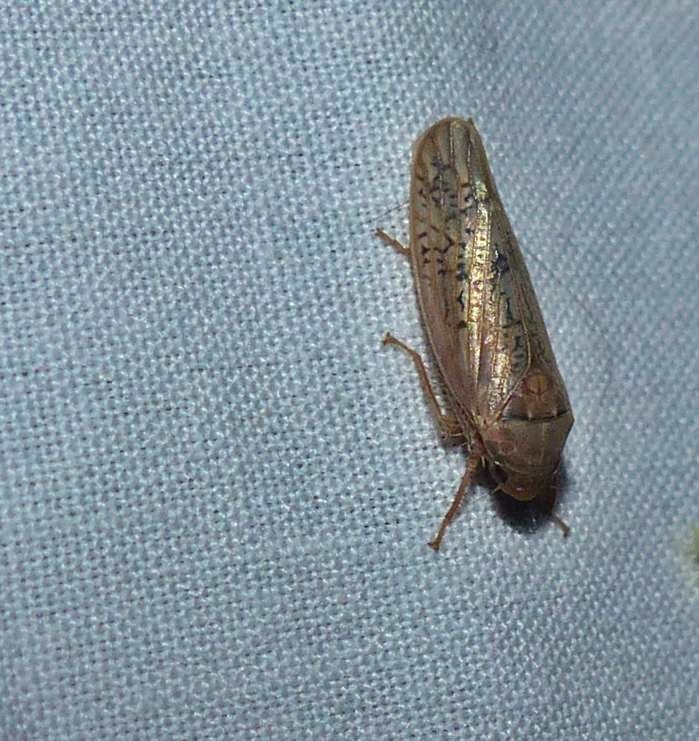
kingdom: Animalia
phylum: Arthropoda
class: Insecta
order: Hemiptera
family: Cicadellidae
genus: Ponana
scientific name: Ponana rubida
